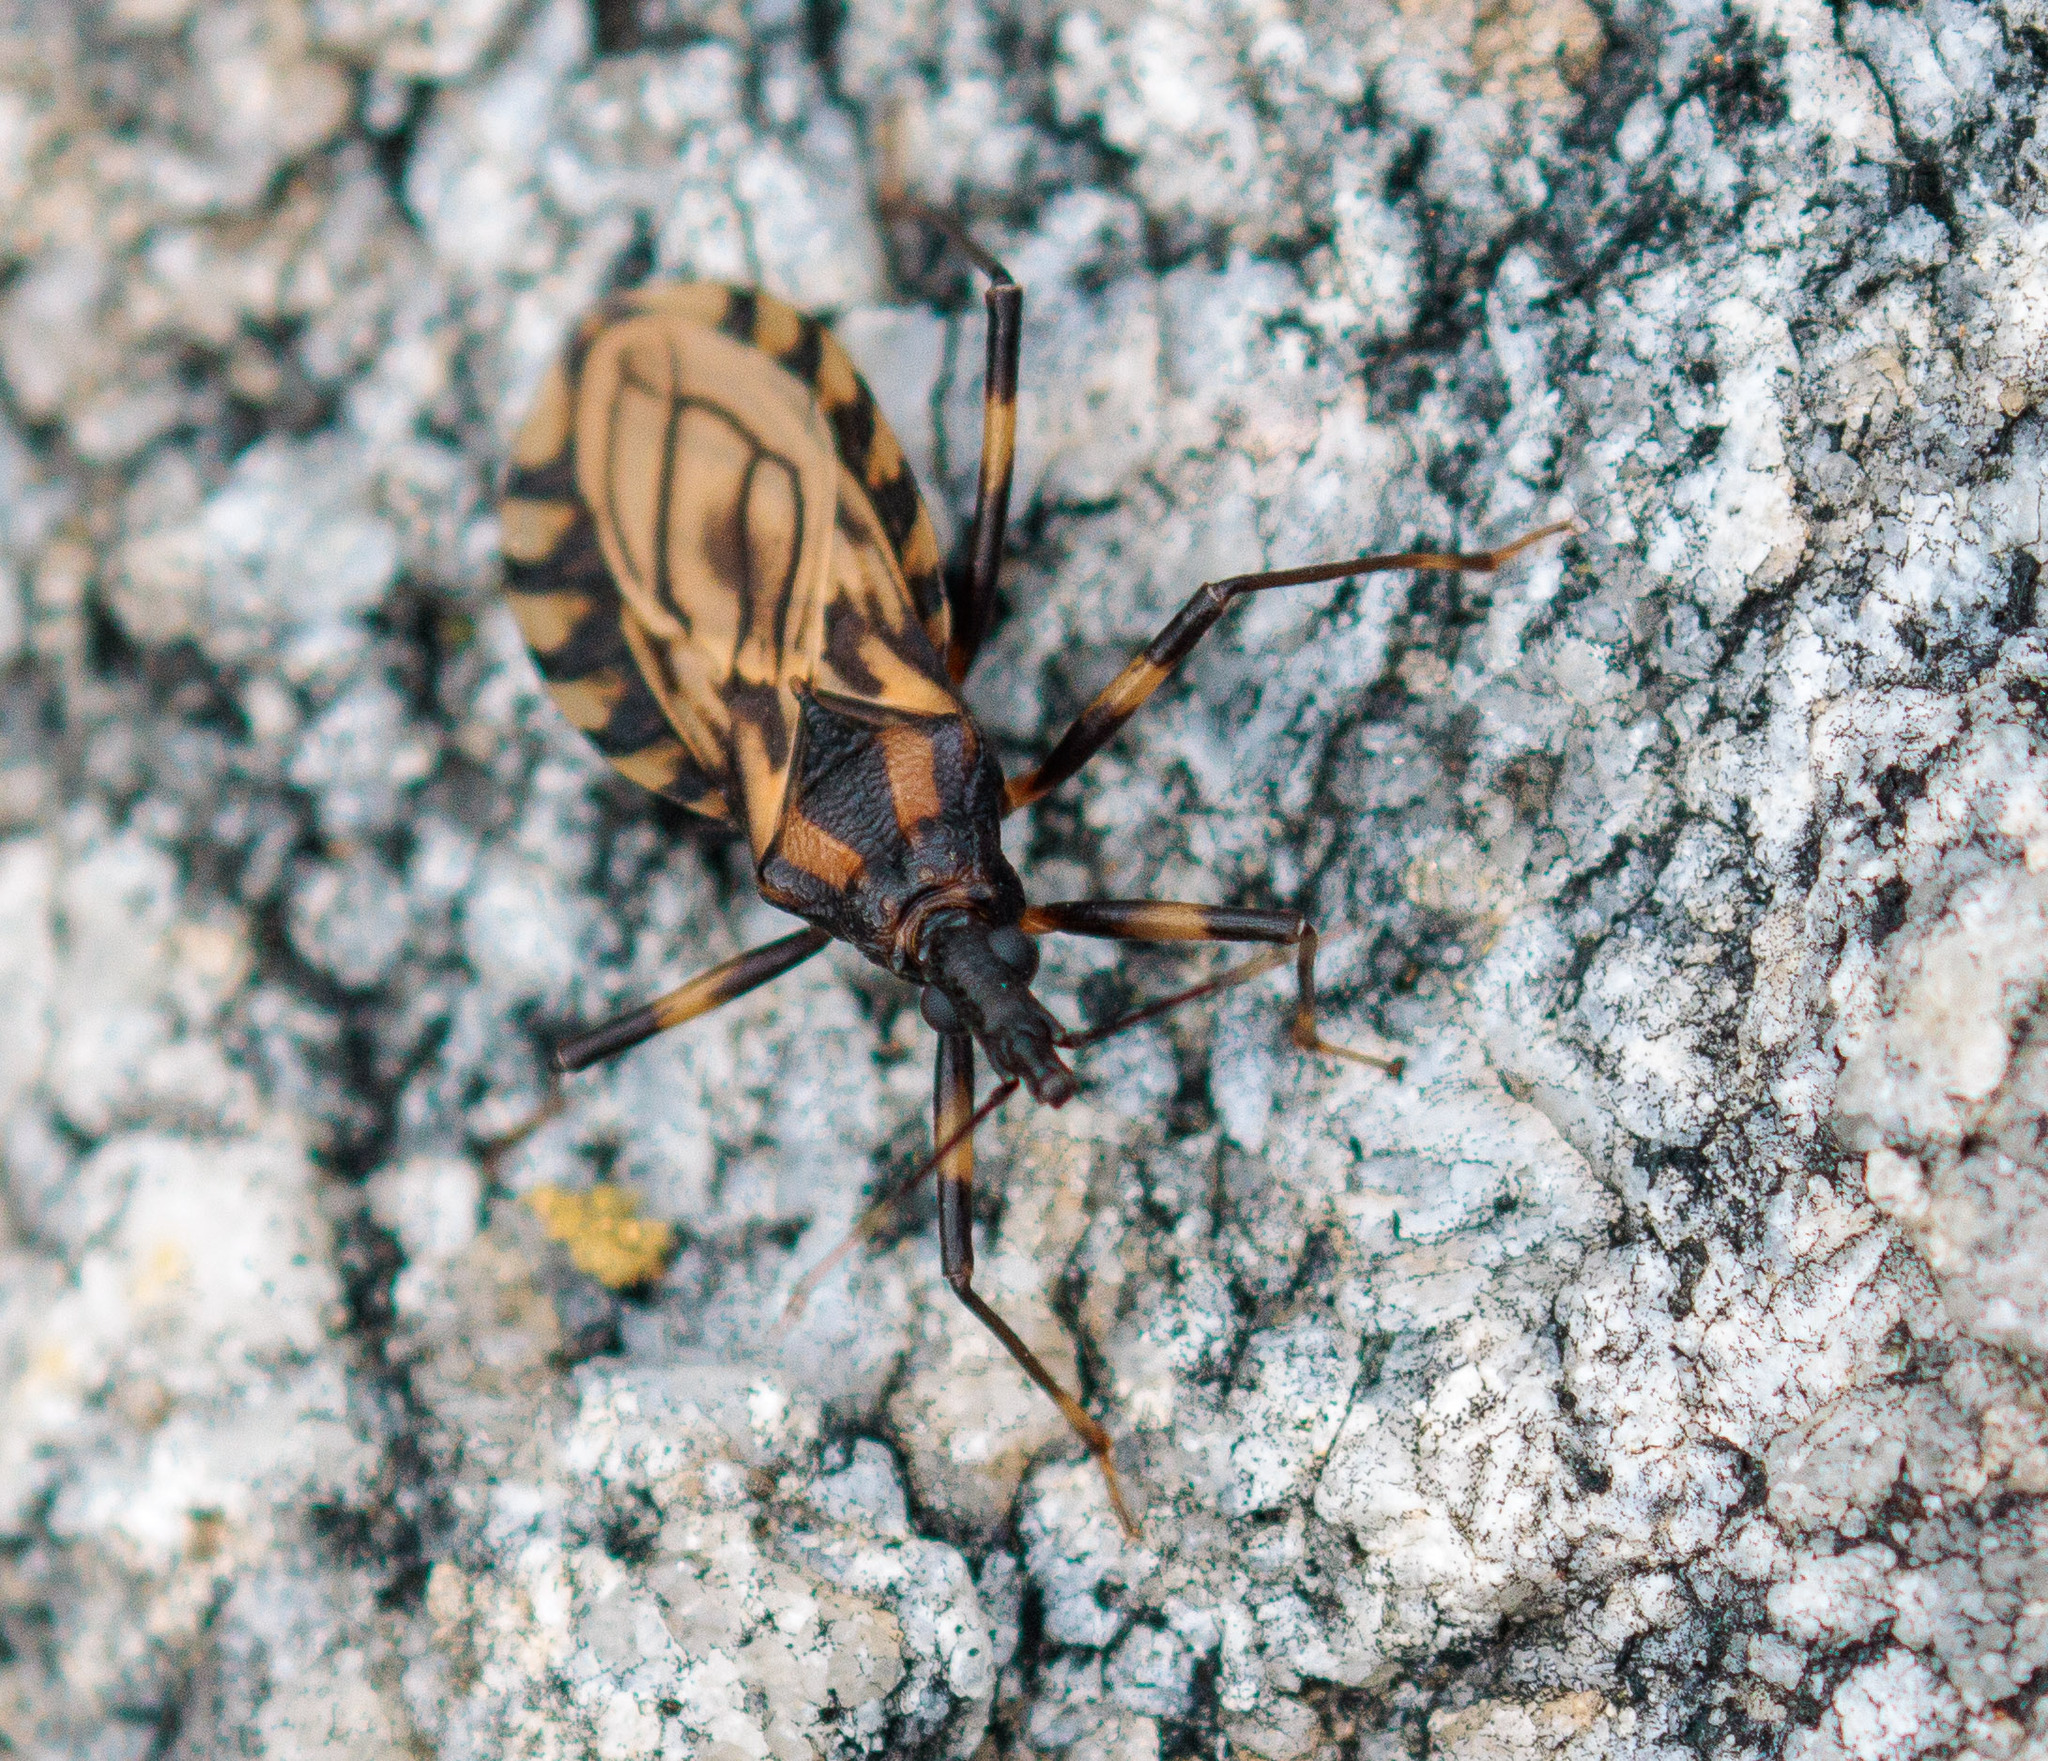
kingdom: Animalia
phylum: Arthropoda
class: Insecta
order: Hemiptera
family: Reduviidae
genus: Triatoma
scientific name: Triatoma brasiliensis
